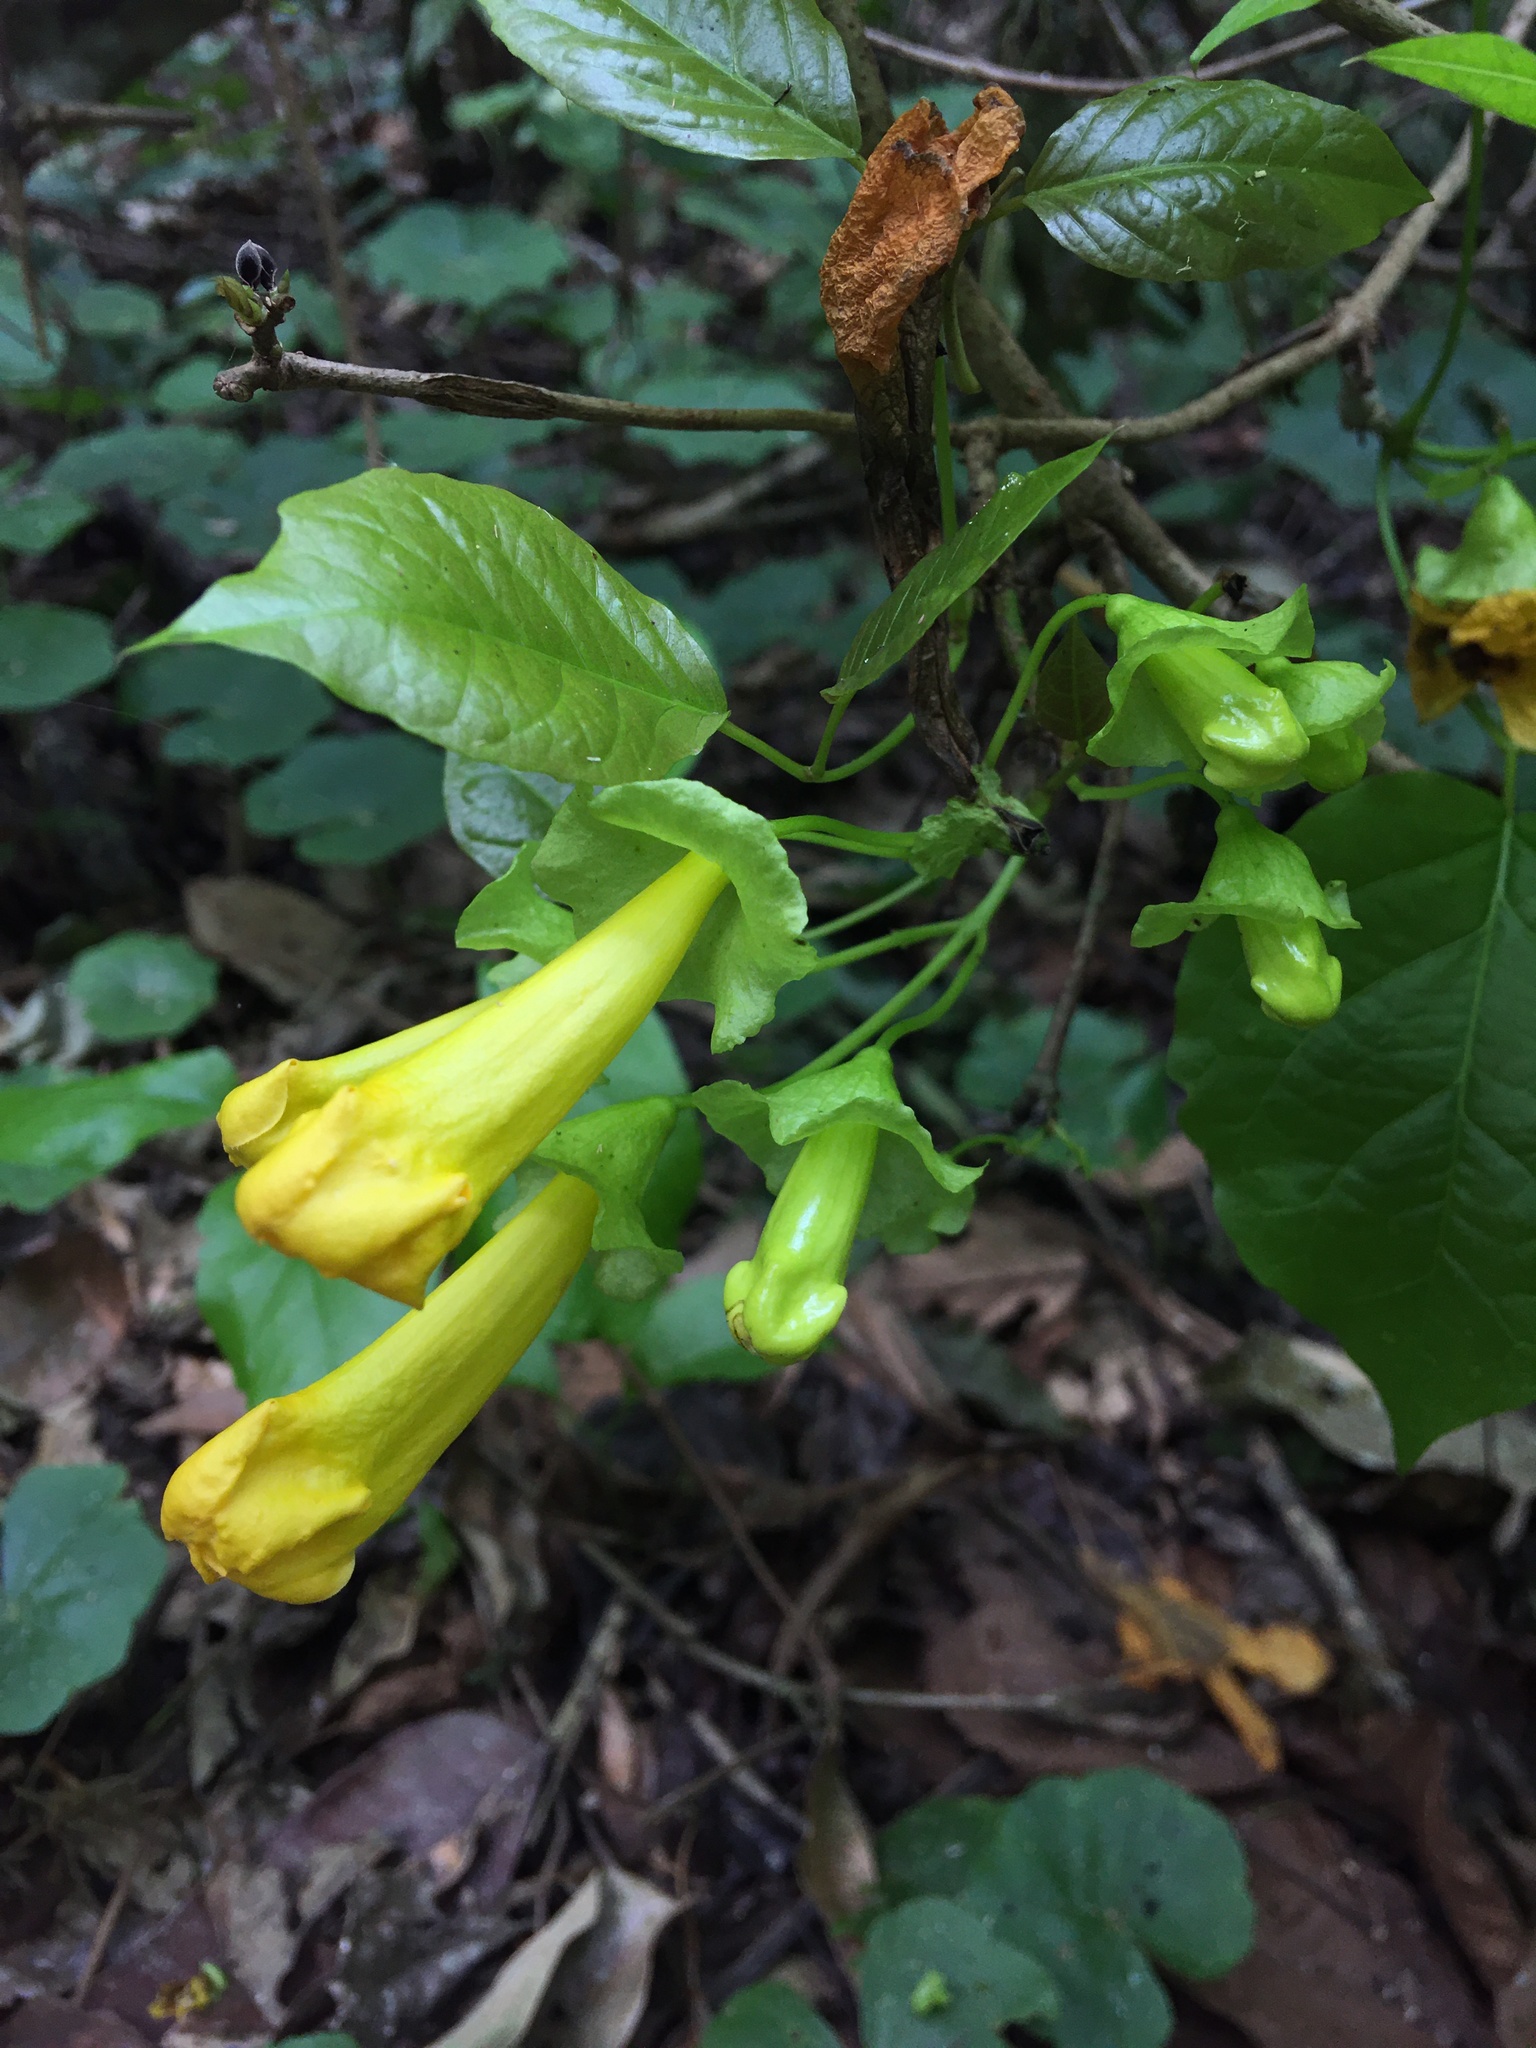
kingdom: Plantae
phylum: Tracheophyta
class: Magnoliopsida
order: Lamiales
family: Bignoniaceae
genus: Dolichandra
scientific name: Dolichandra unguis-cati
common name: Catclaw vine
